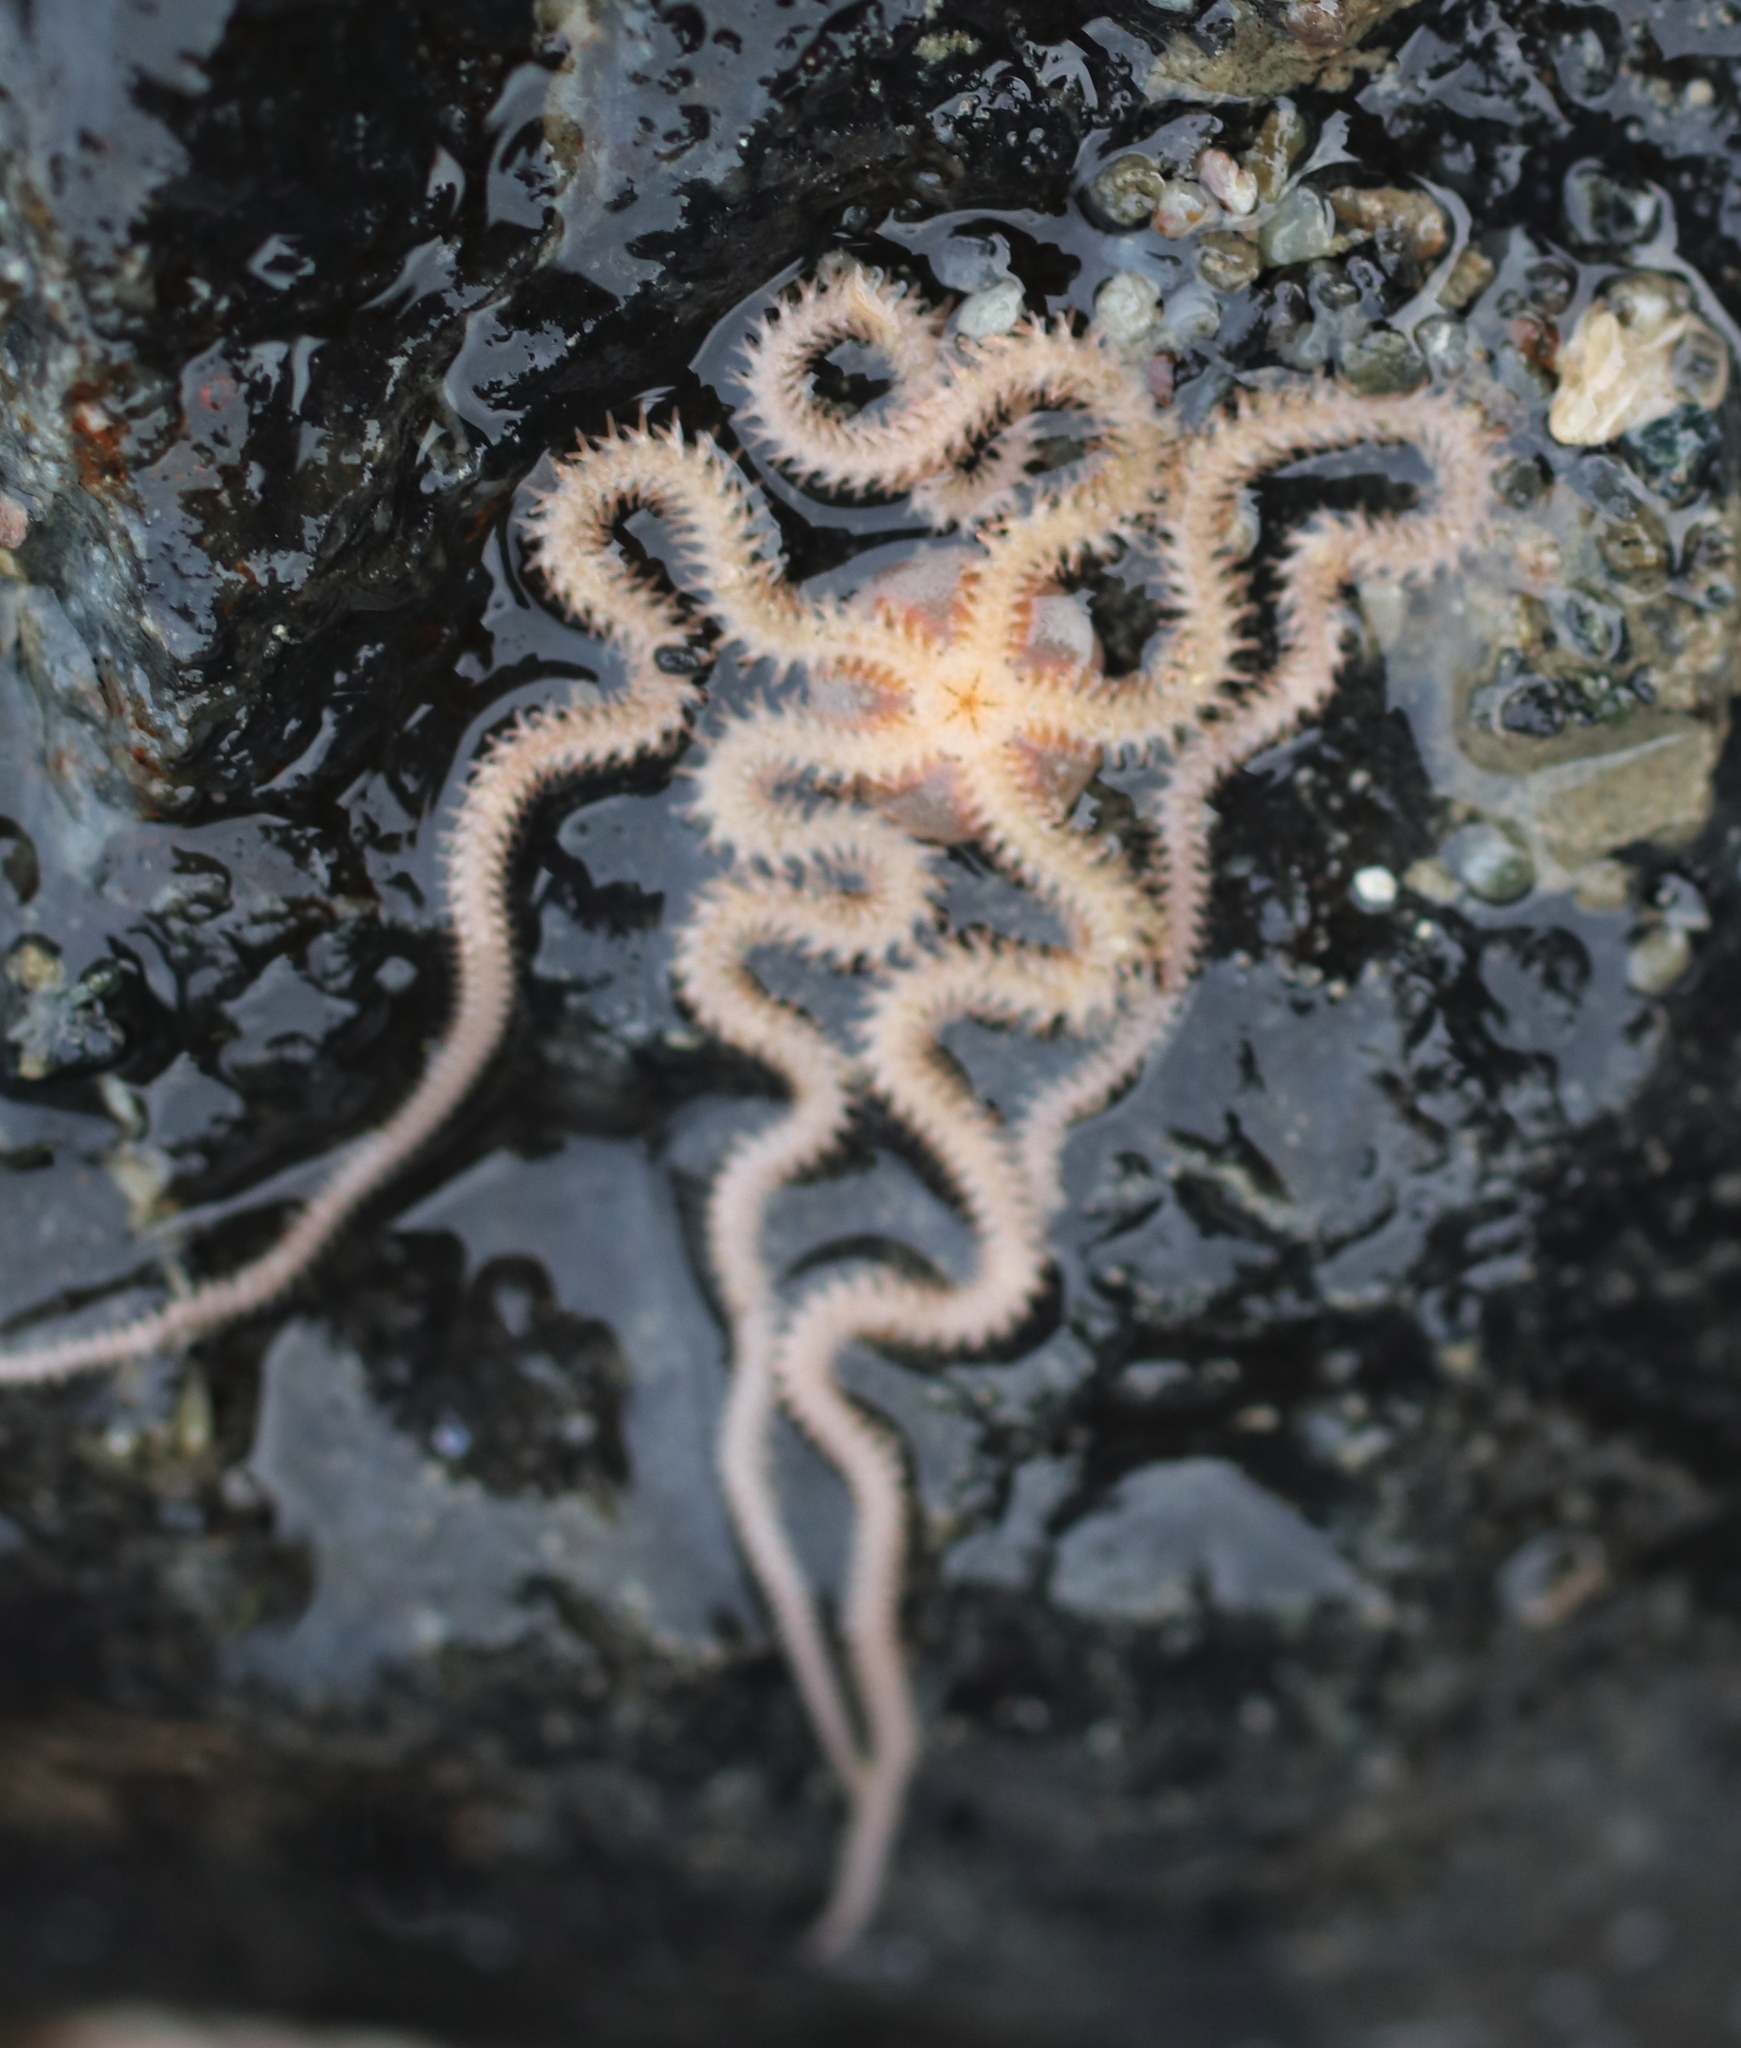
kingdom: Animalia
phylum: Echinodermata
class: Ophiuroidea
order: Amphilepidida
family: Amphiuridae
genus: Amphiodia
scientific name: Amphiodia occidentalis
